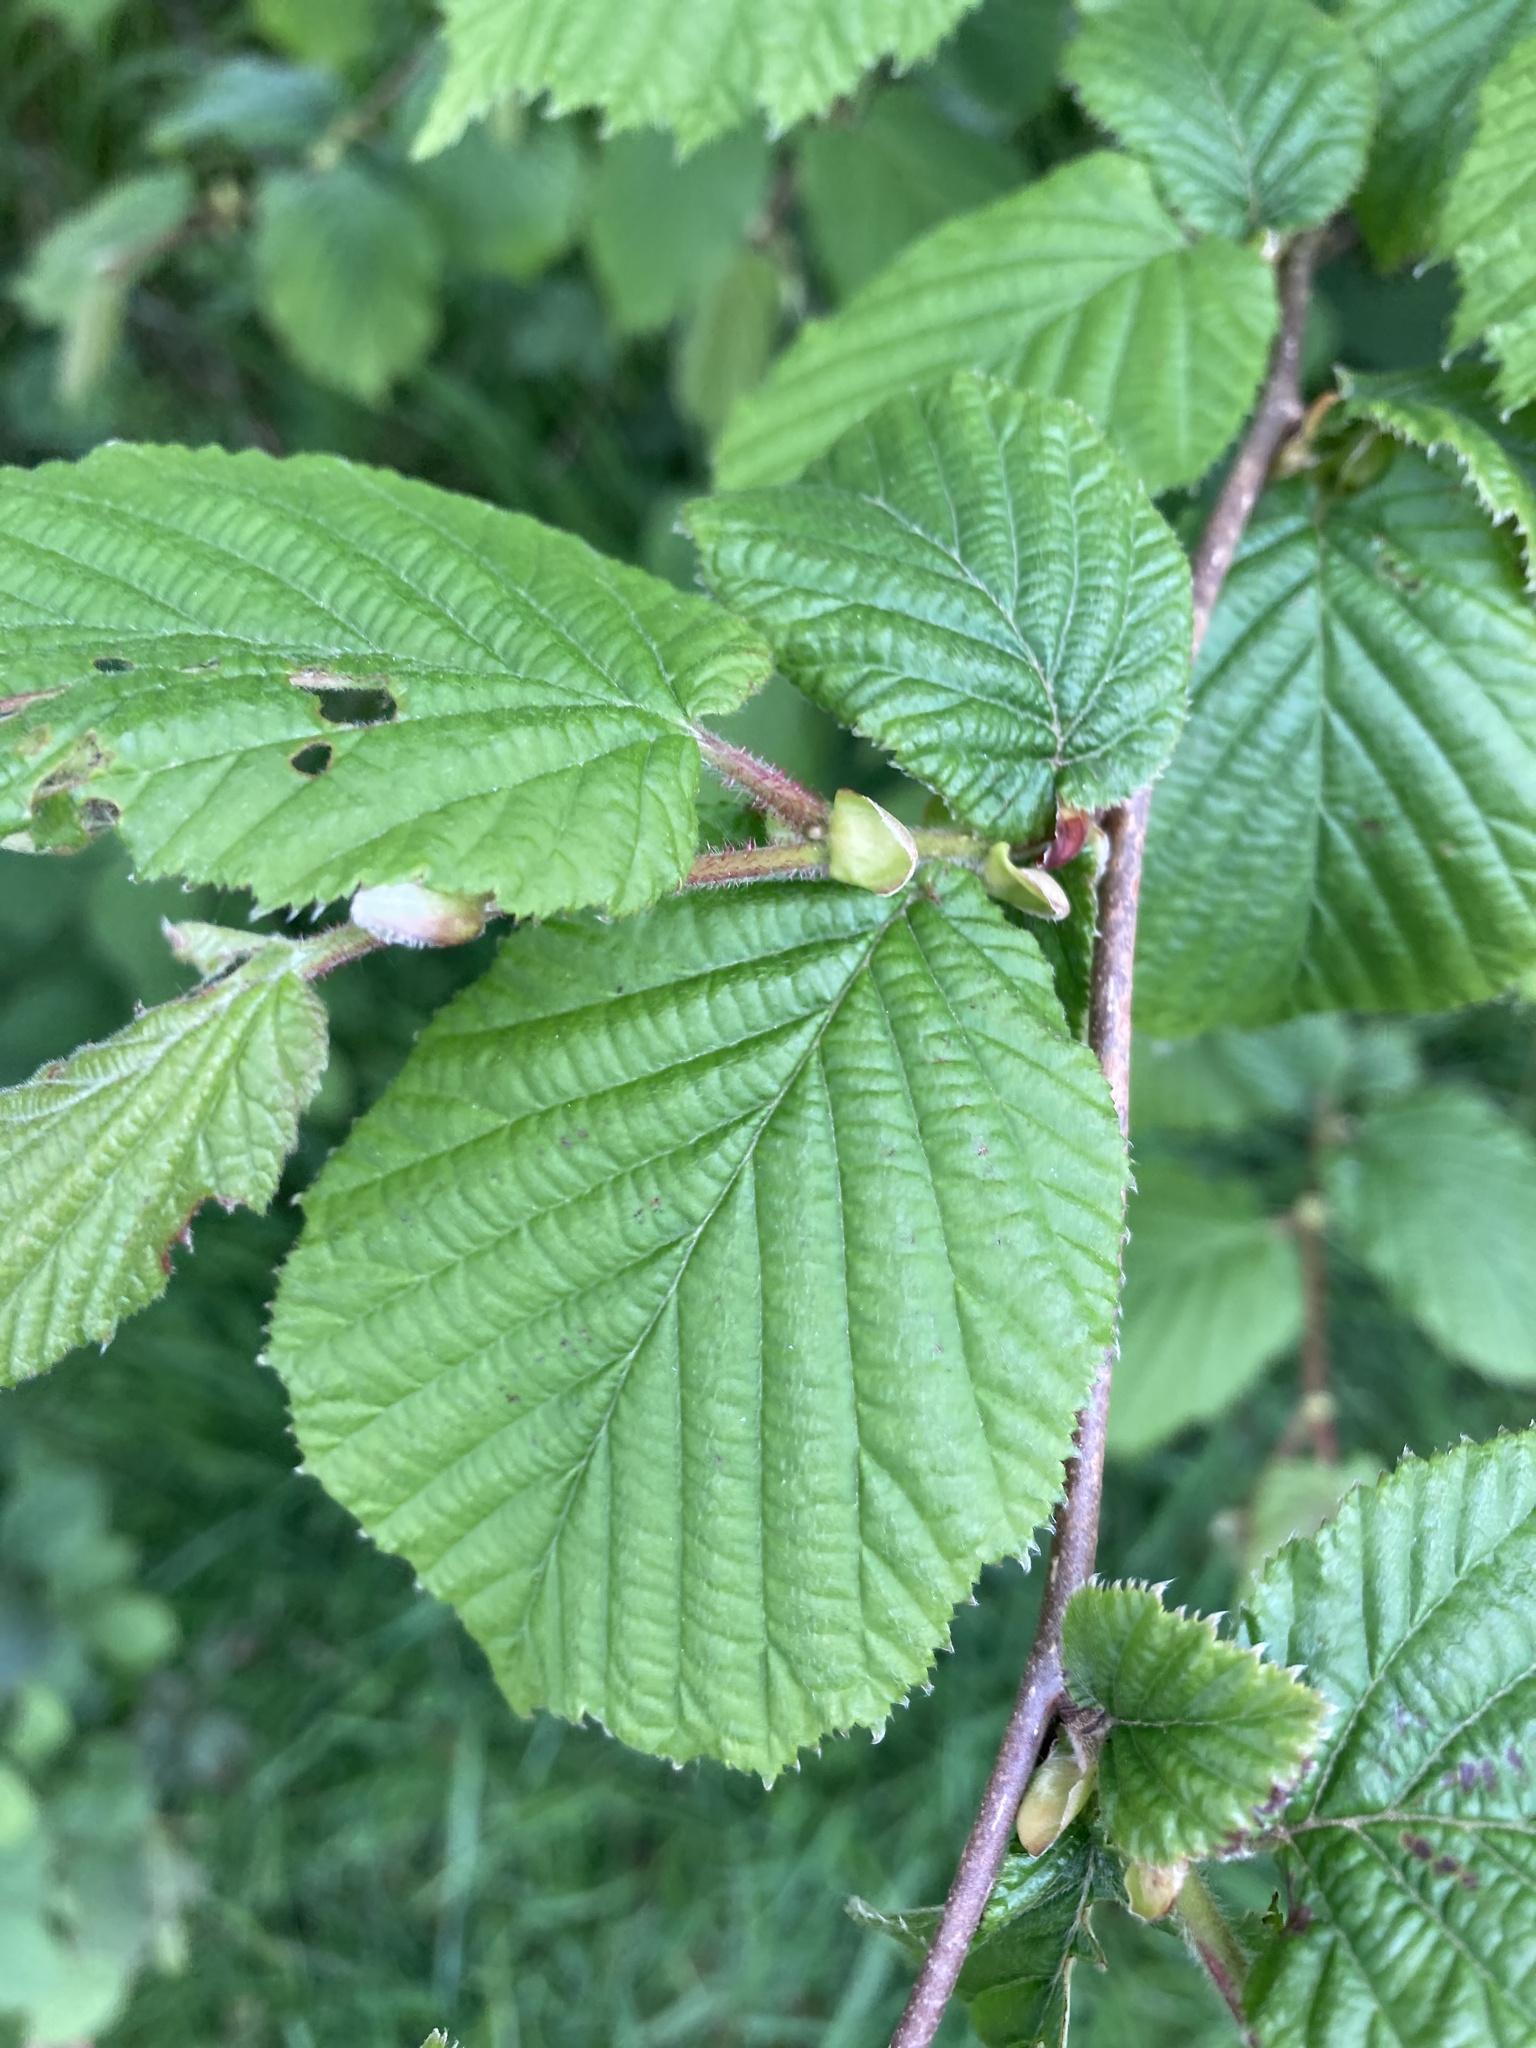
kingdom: Plantae
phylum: Tracheophyta
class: Magnoliopsida
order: Fagales
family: Betulaceae
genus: Corylus
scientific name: Corylus avellana
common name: European hazel
